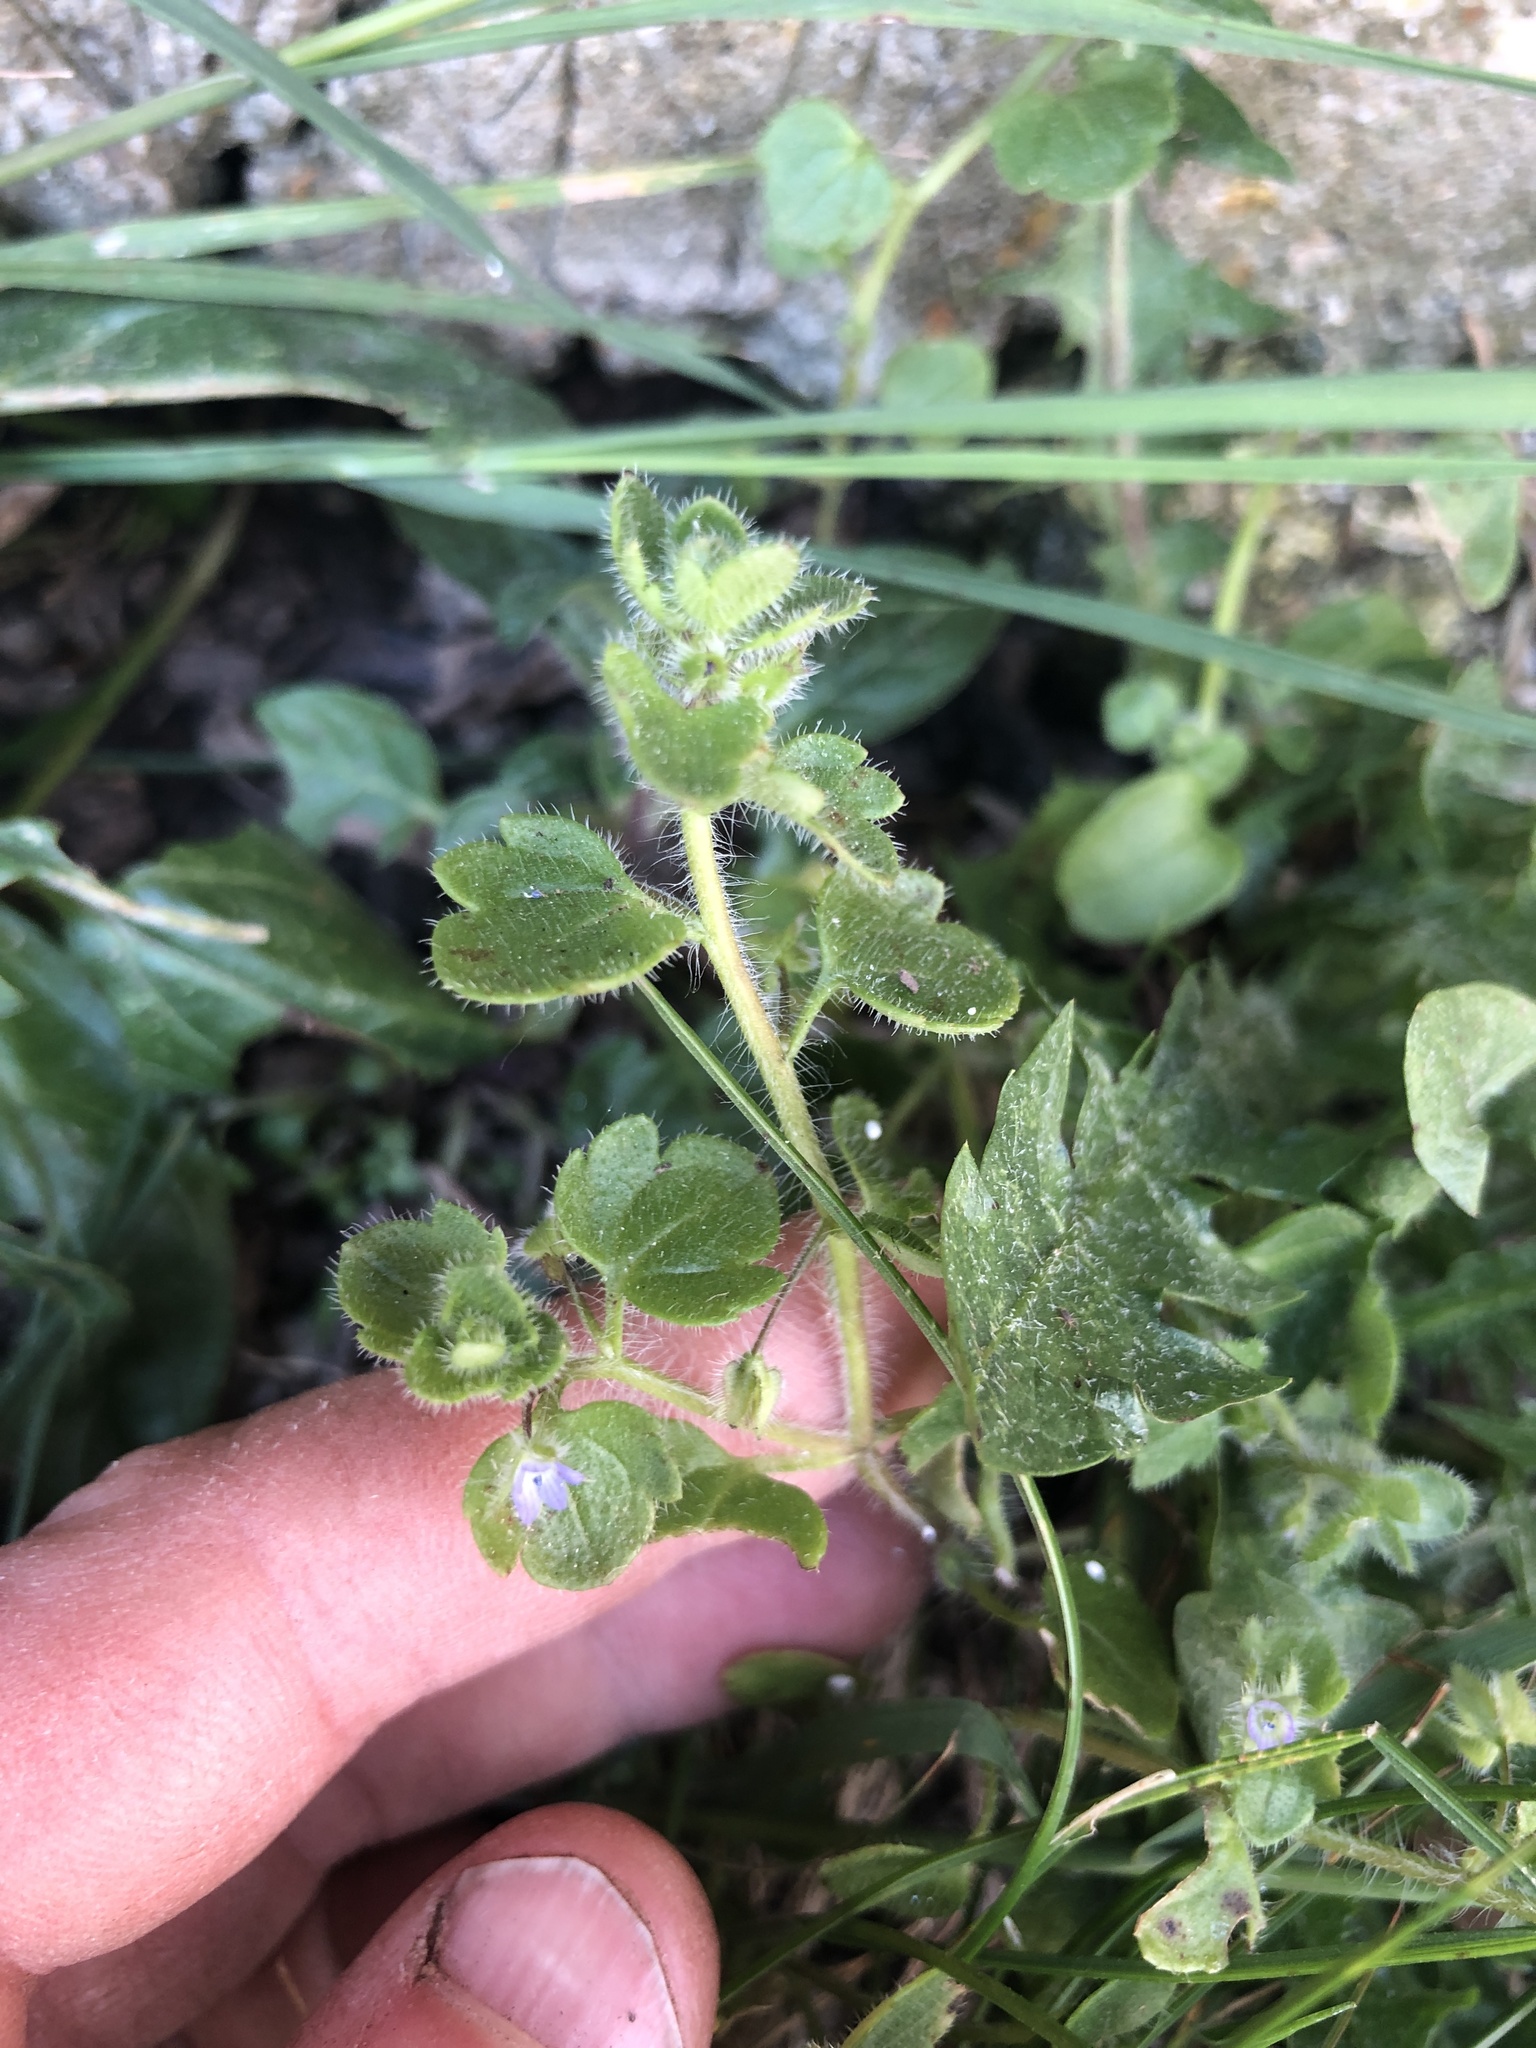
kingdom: Plantae
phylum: Tracheophyta
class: Magnoliopsida
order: Lamiales
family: Plantaginaceae
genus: Veronica
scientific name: Veronica hederifolia
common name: Ivy-leaved speedwell
